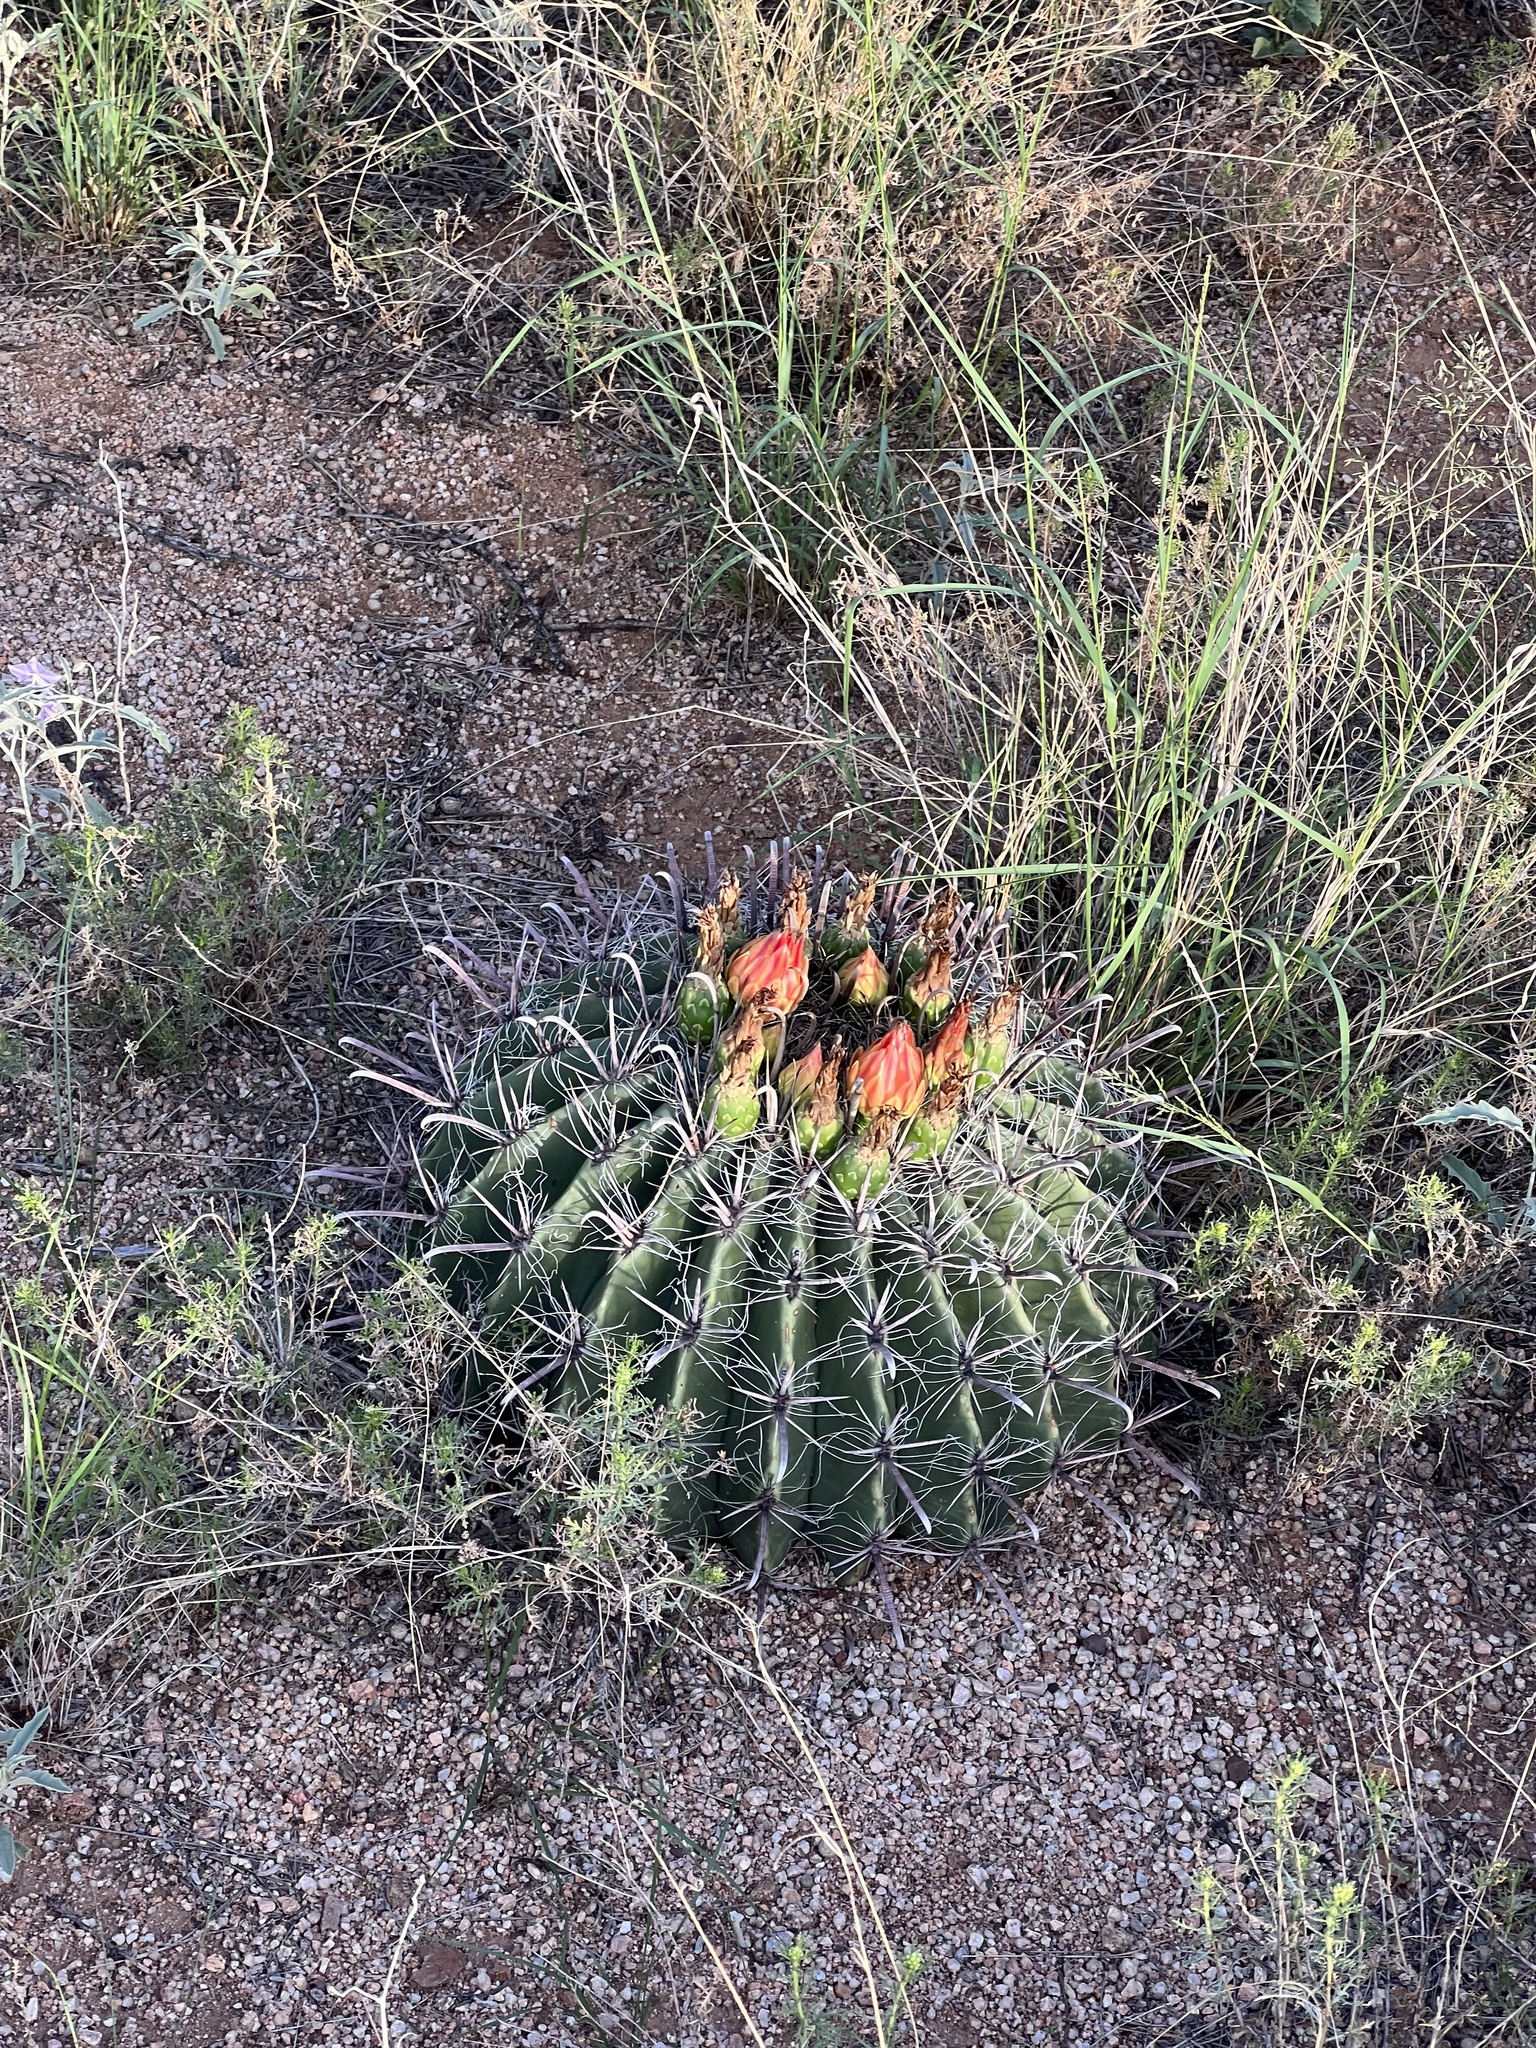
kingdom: Plantae
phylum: Tracheophyta
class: Magnoliopsida
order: Caryophyllales
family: Cactaceae
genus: Ferocactus
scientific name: Ferocactus wislizeni
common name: Candy barrel cactus
